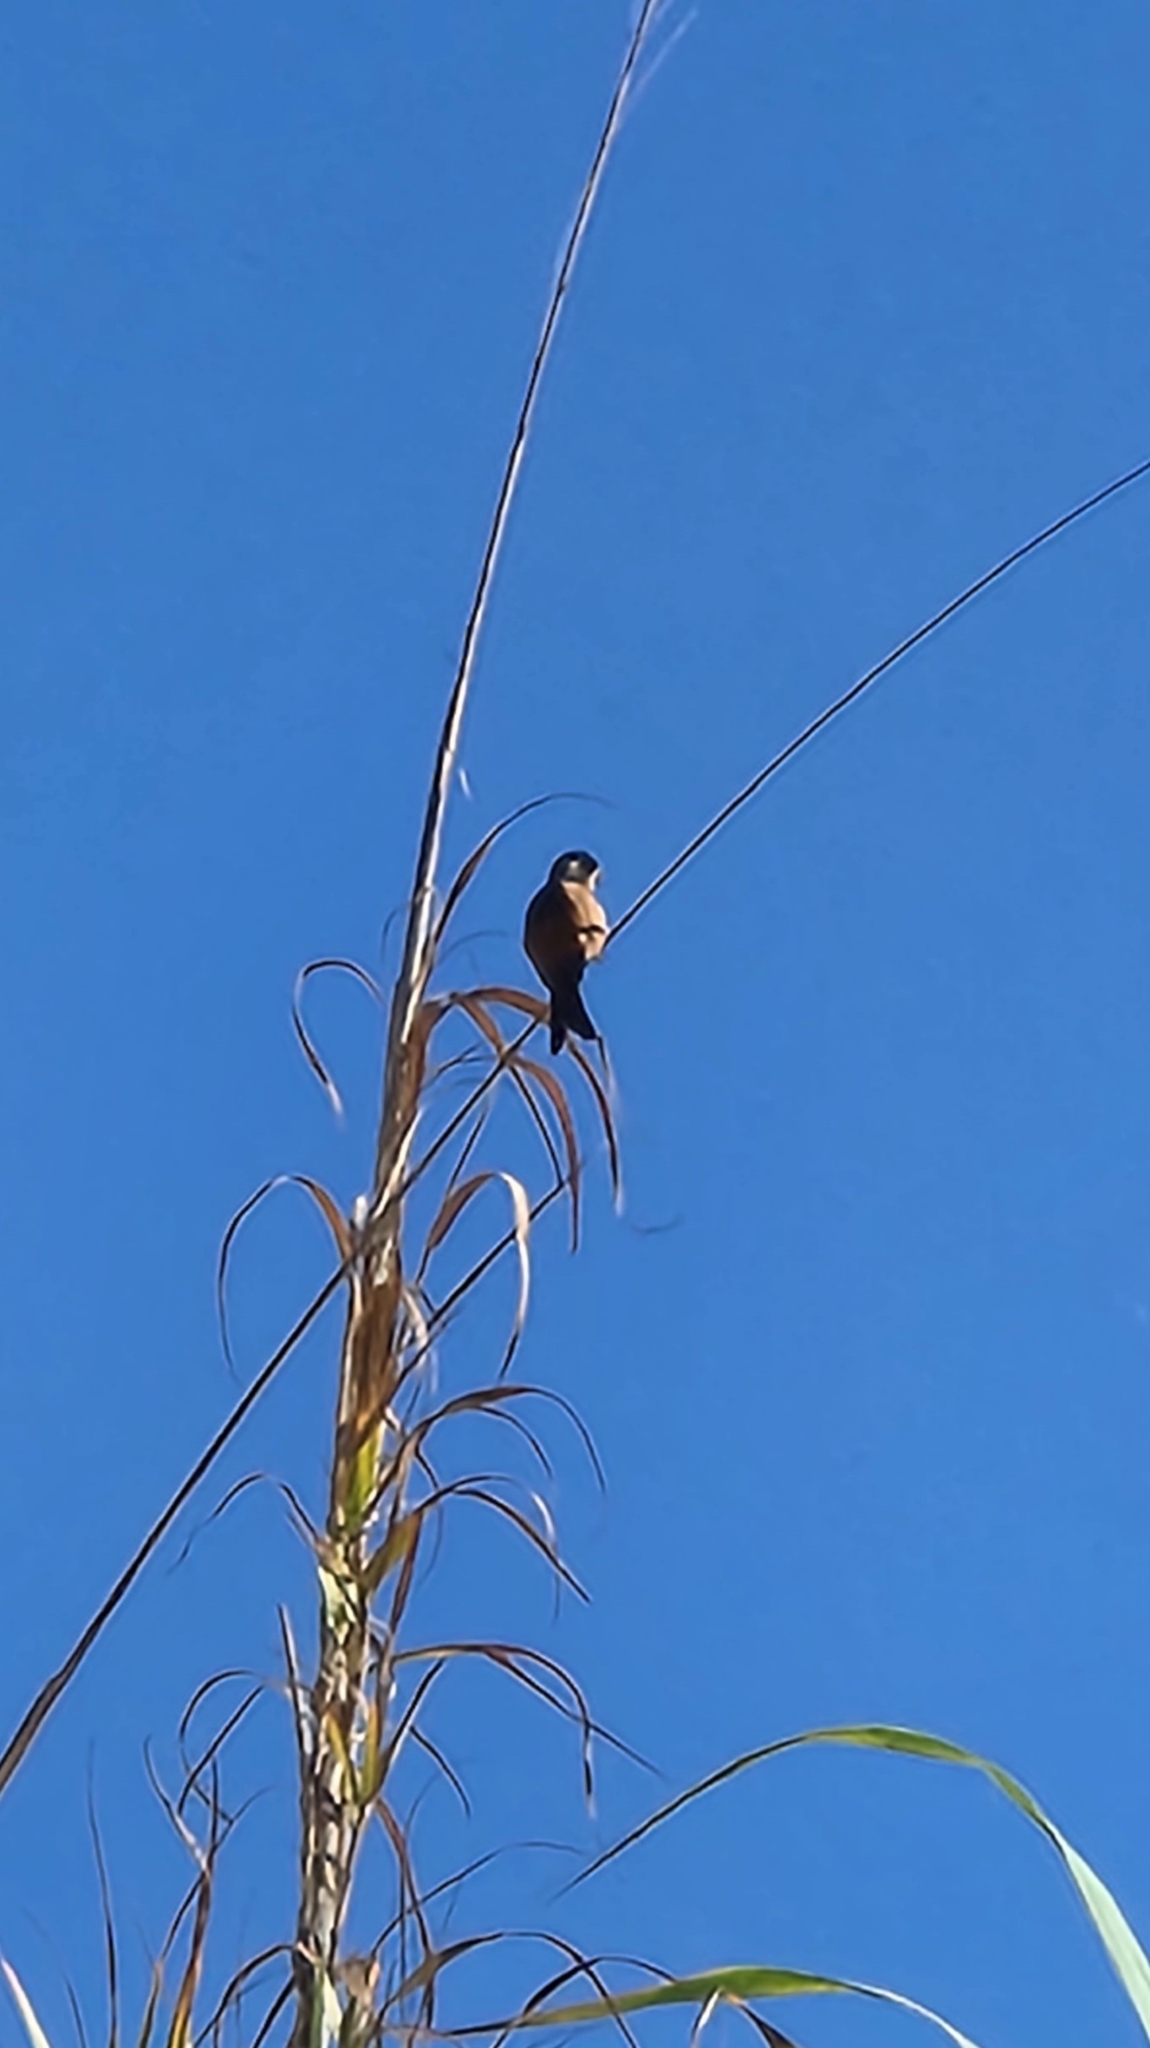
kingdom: Animalia
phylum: Chordata
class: Aves
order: Passeriformes
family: Thraupidae
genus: Sporophila
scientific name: Sporophila torqueola
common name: White-collared seedeater
